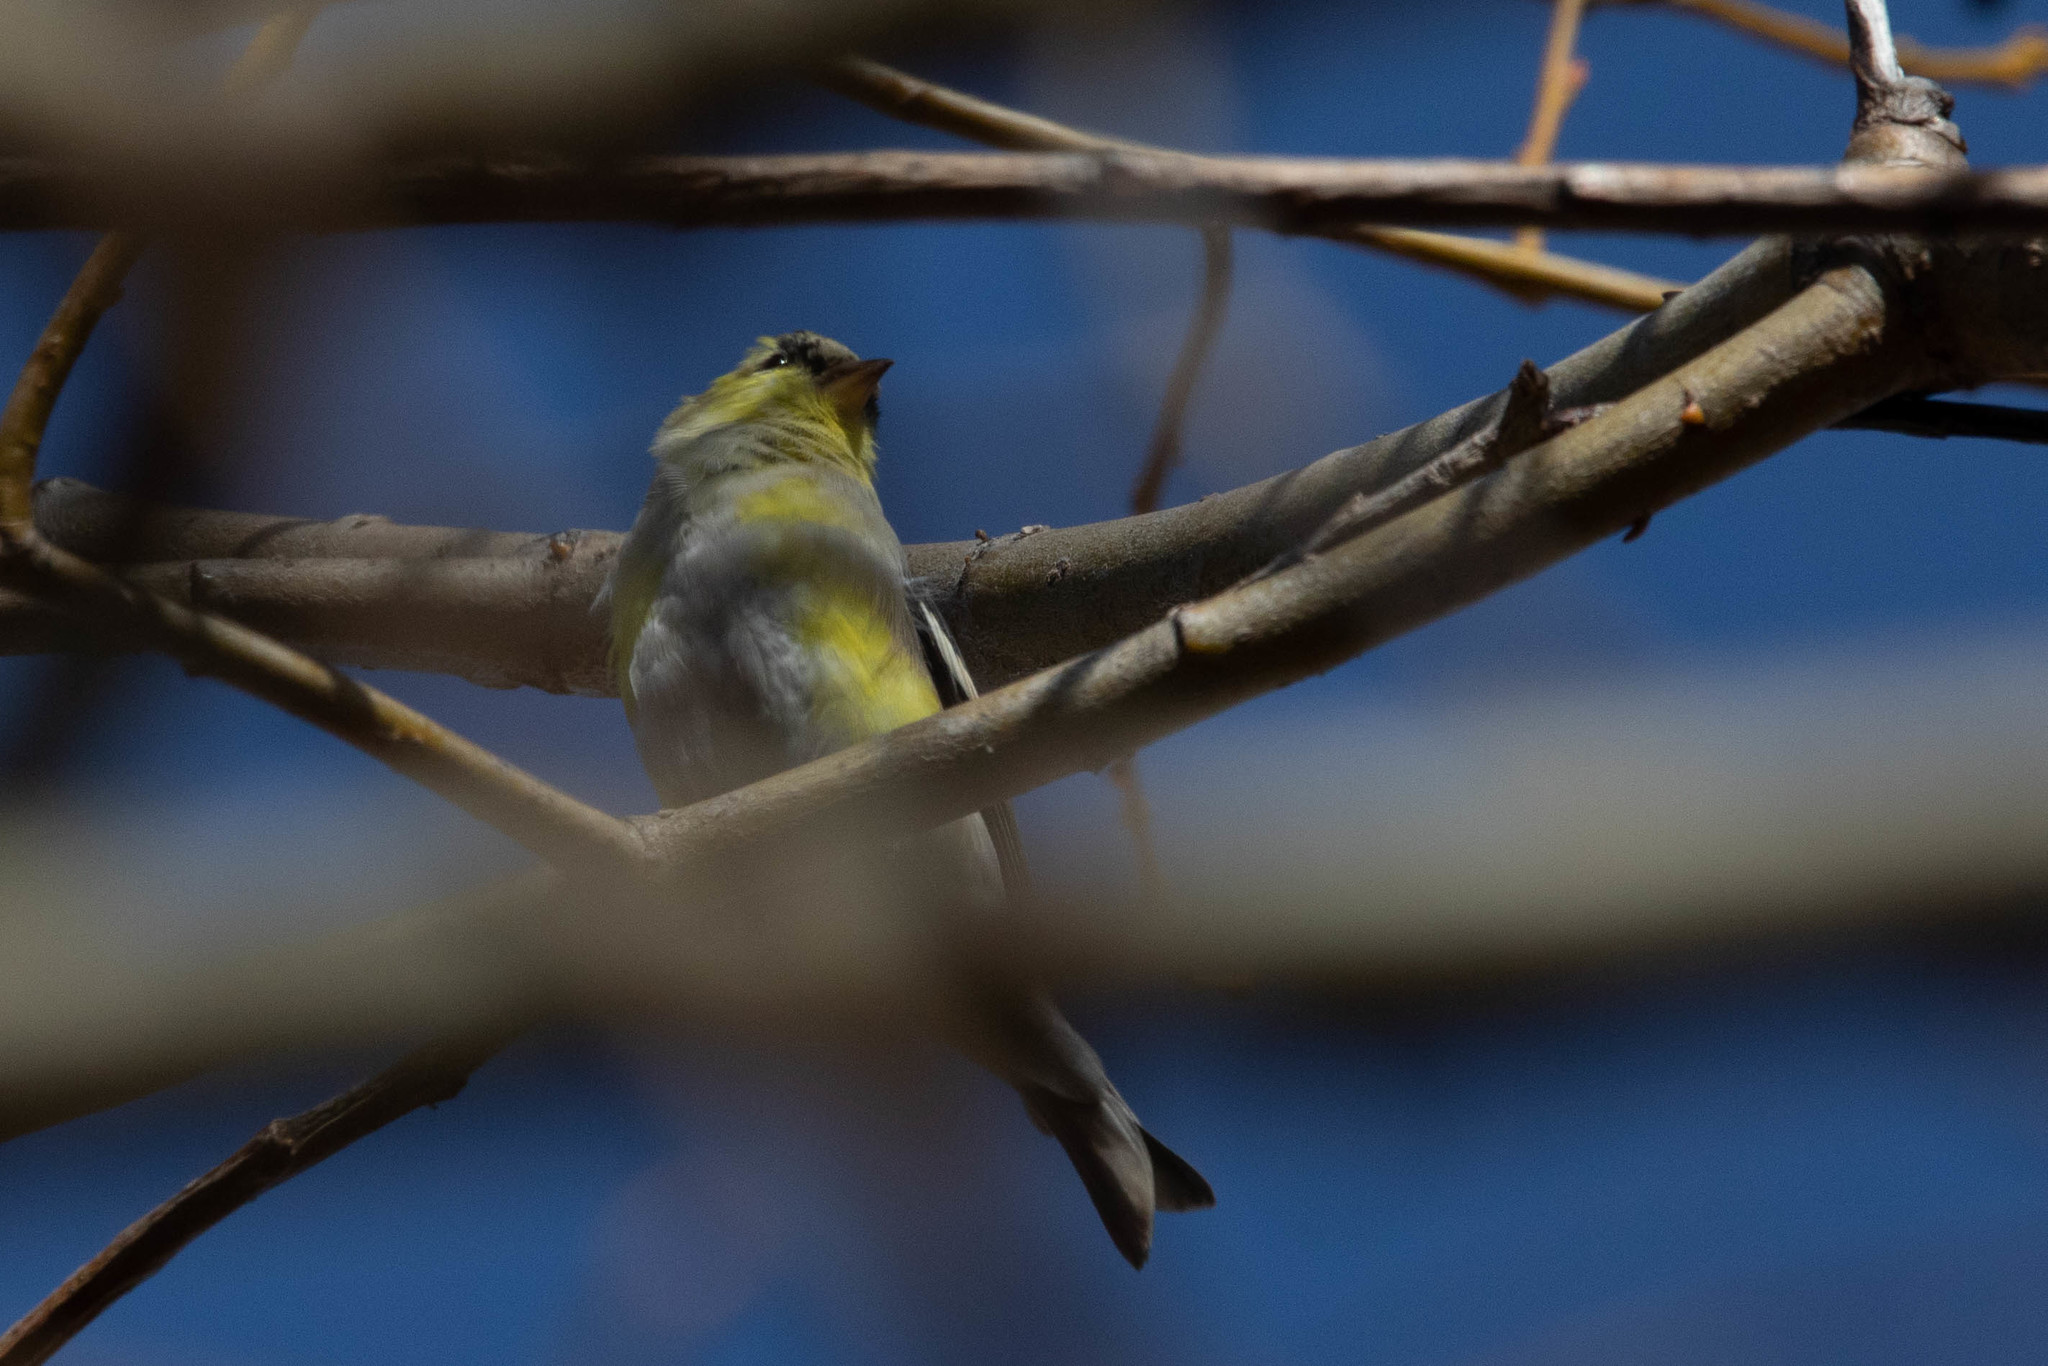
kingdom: Animalia
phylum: Chordata
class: Aves
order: Passeriformes
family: Fringillidae
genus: Spinus
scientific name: Spinus tristis
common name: American goldfinch
